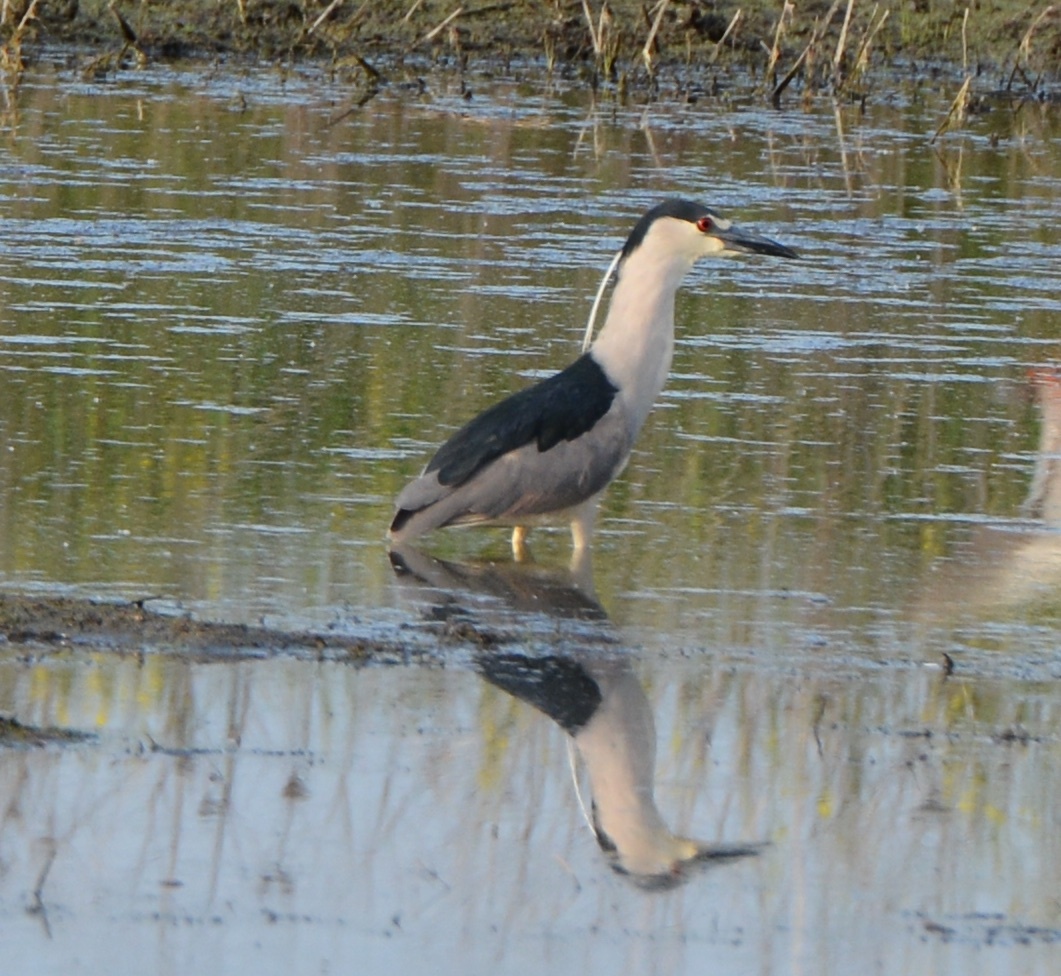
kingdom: Animalia
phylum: Chordata
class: Aves
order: Pelecaniformes
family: Ardeidae
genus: Nycticorax
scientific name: Nycticorax nycticorax
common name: Black-crowned night heron
